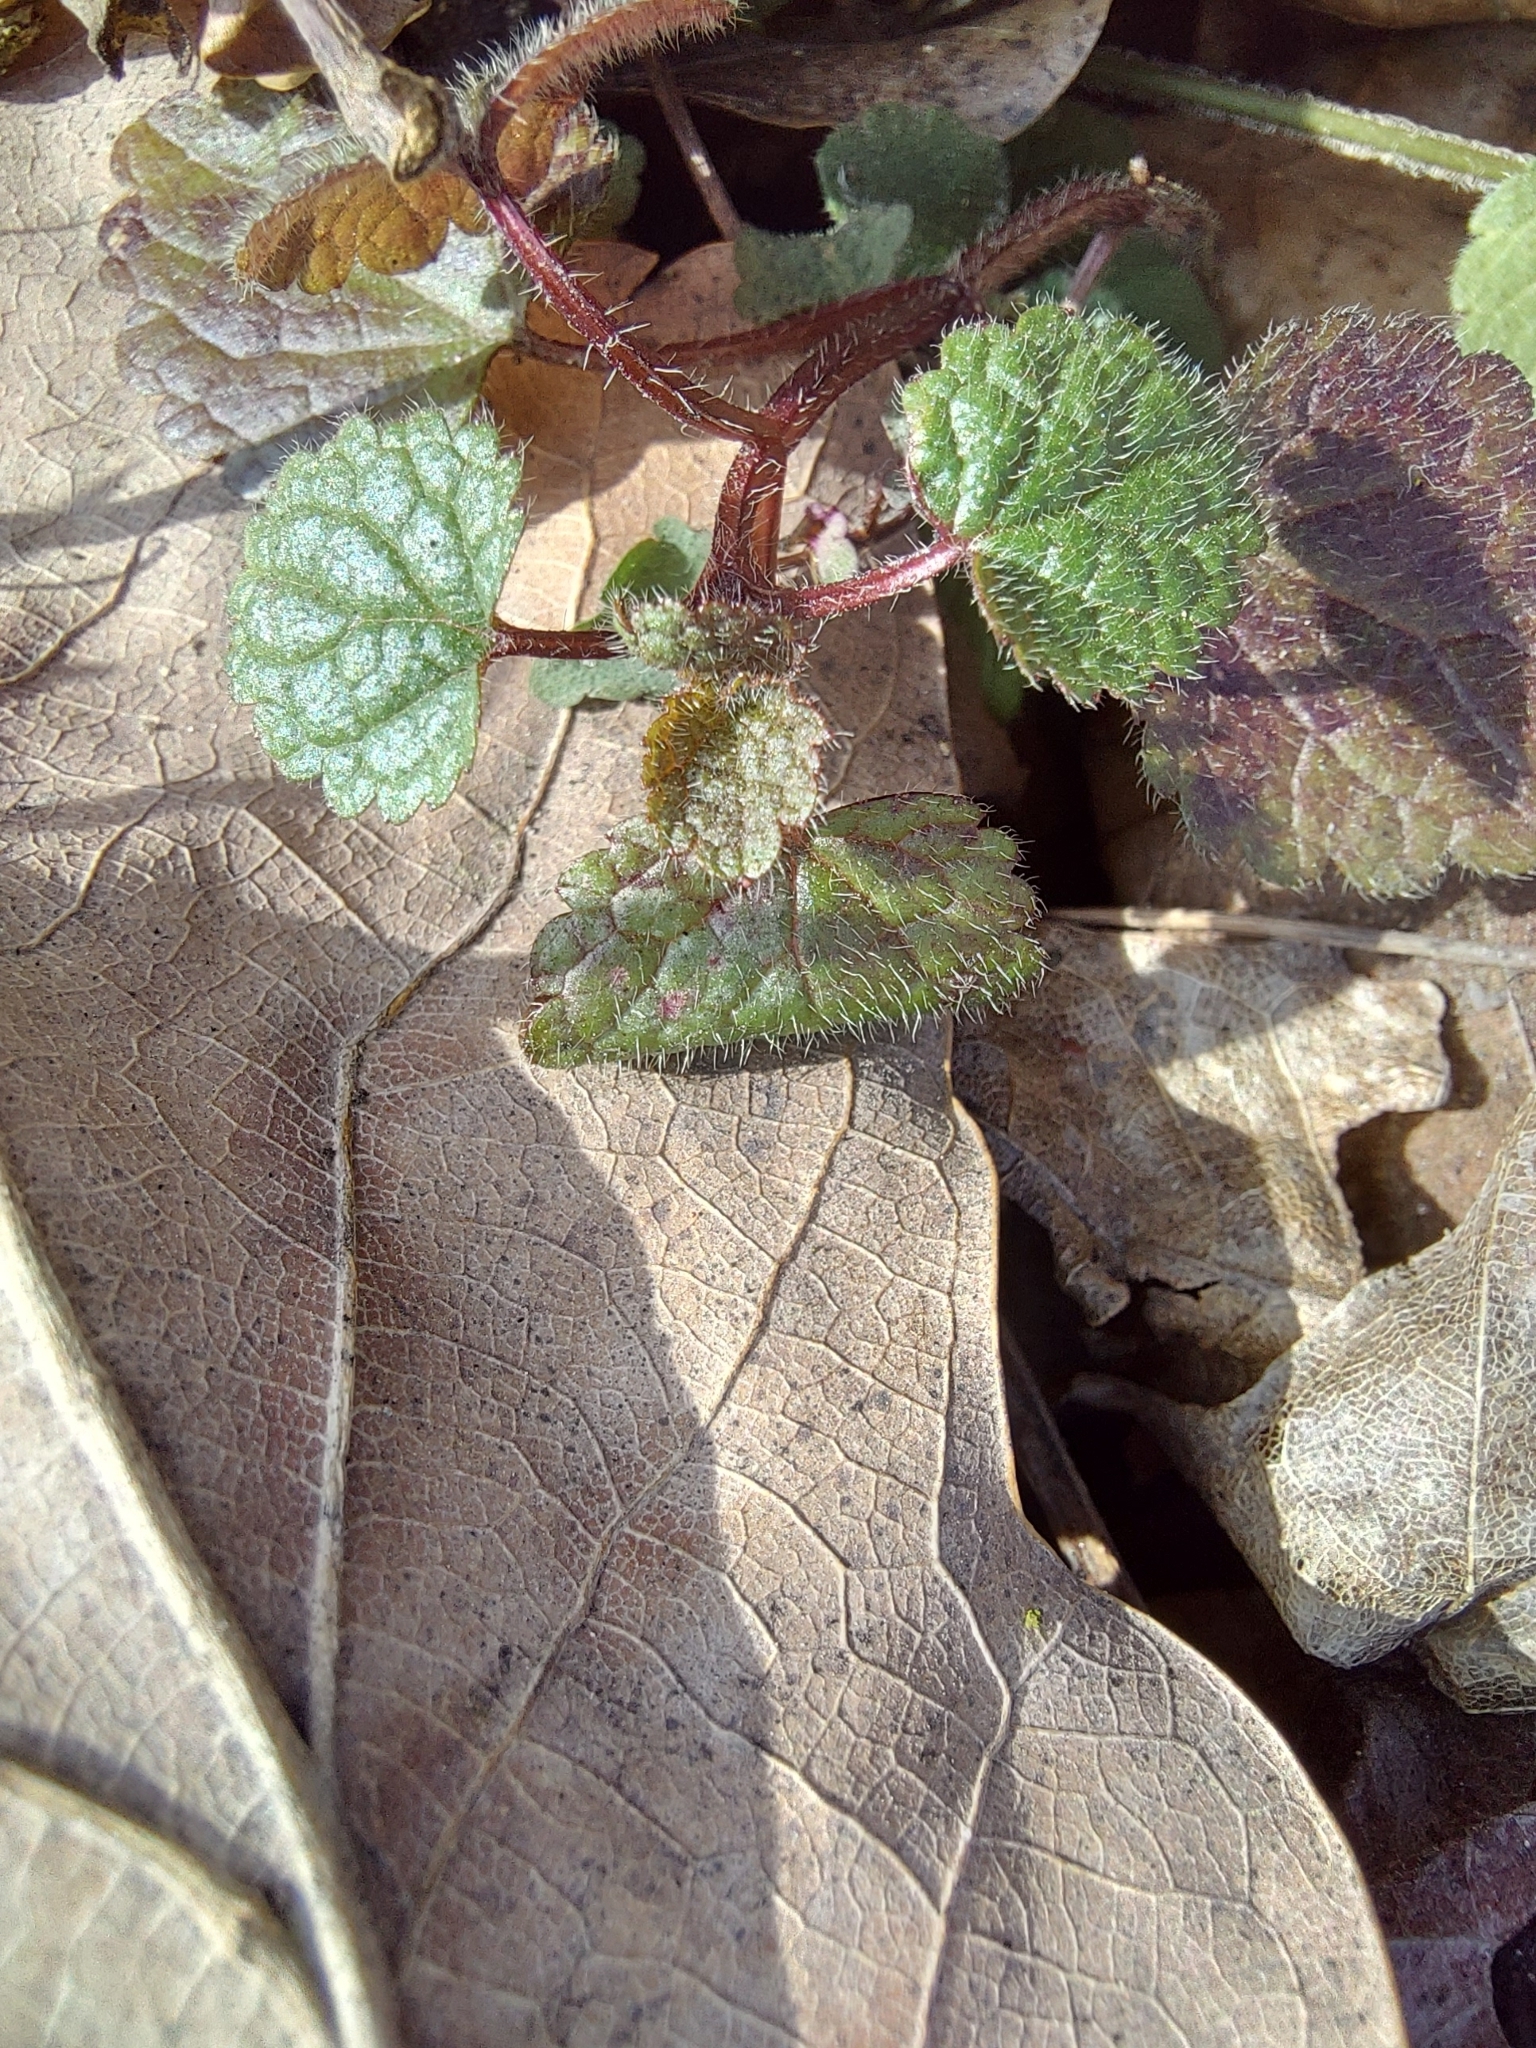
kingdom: Plantae
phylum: Tracheophyta
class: Magnoliopsida
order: Lamiales
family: Lamiaceae
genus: Lamium
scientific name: Lamium galeobdolon
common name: Yellow archangel
